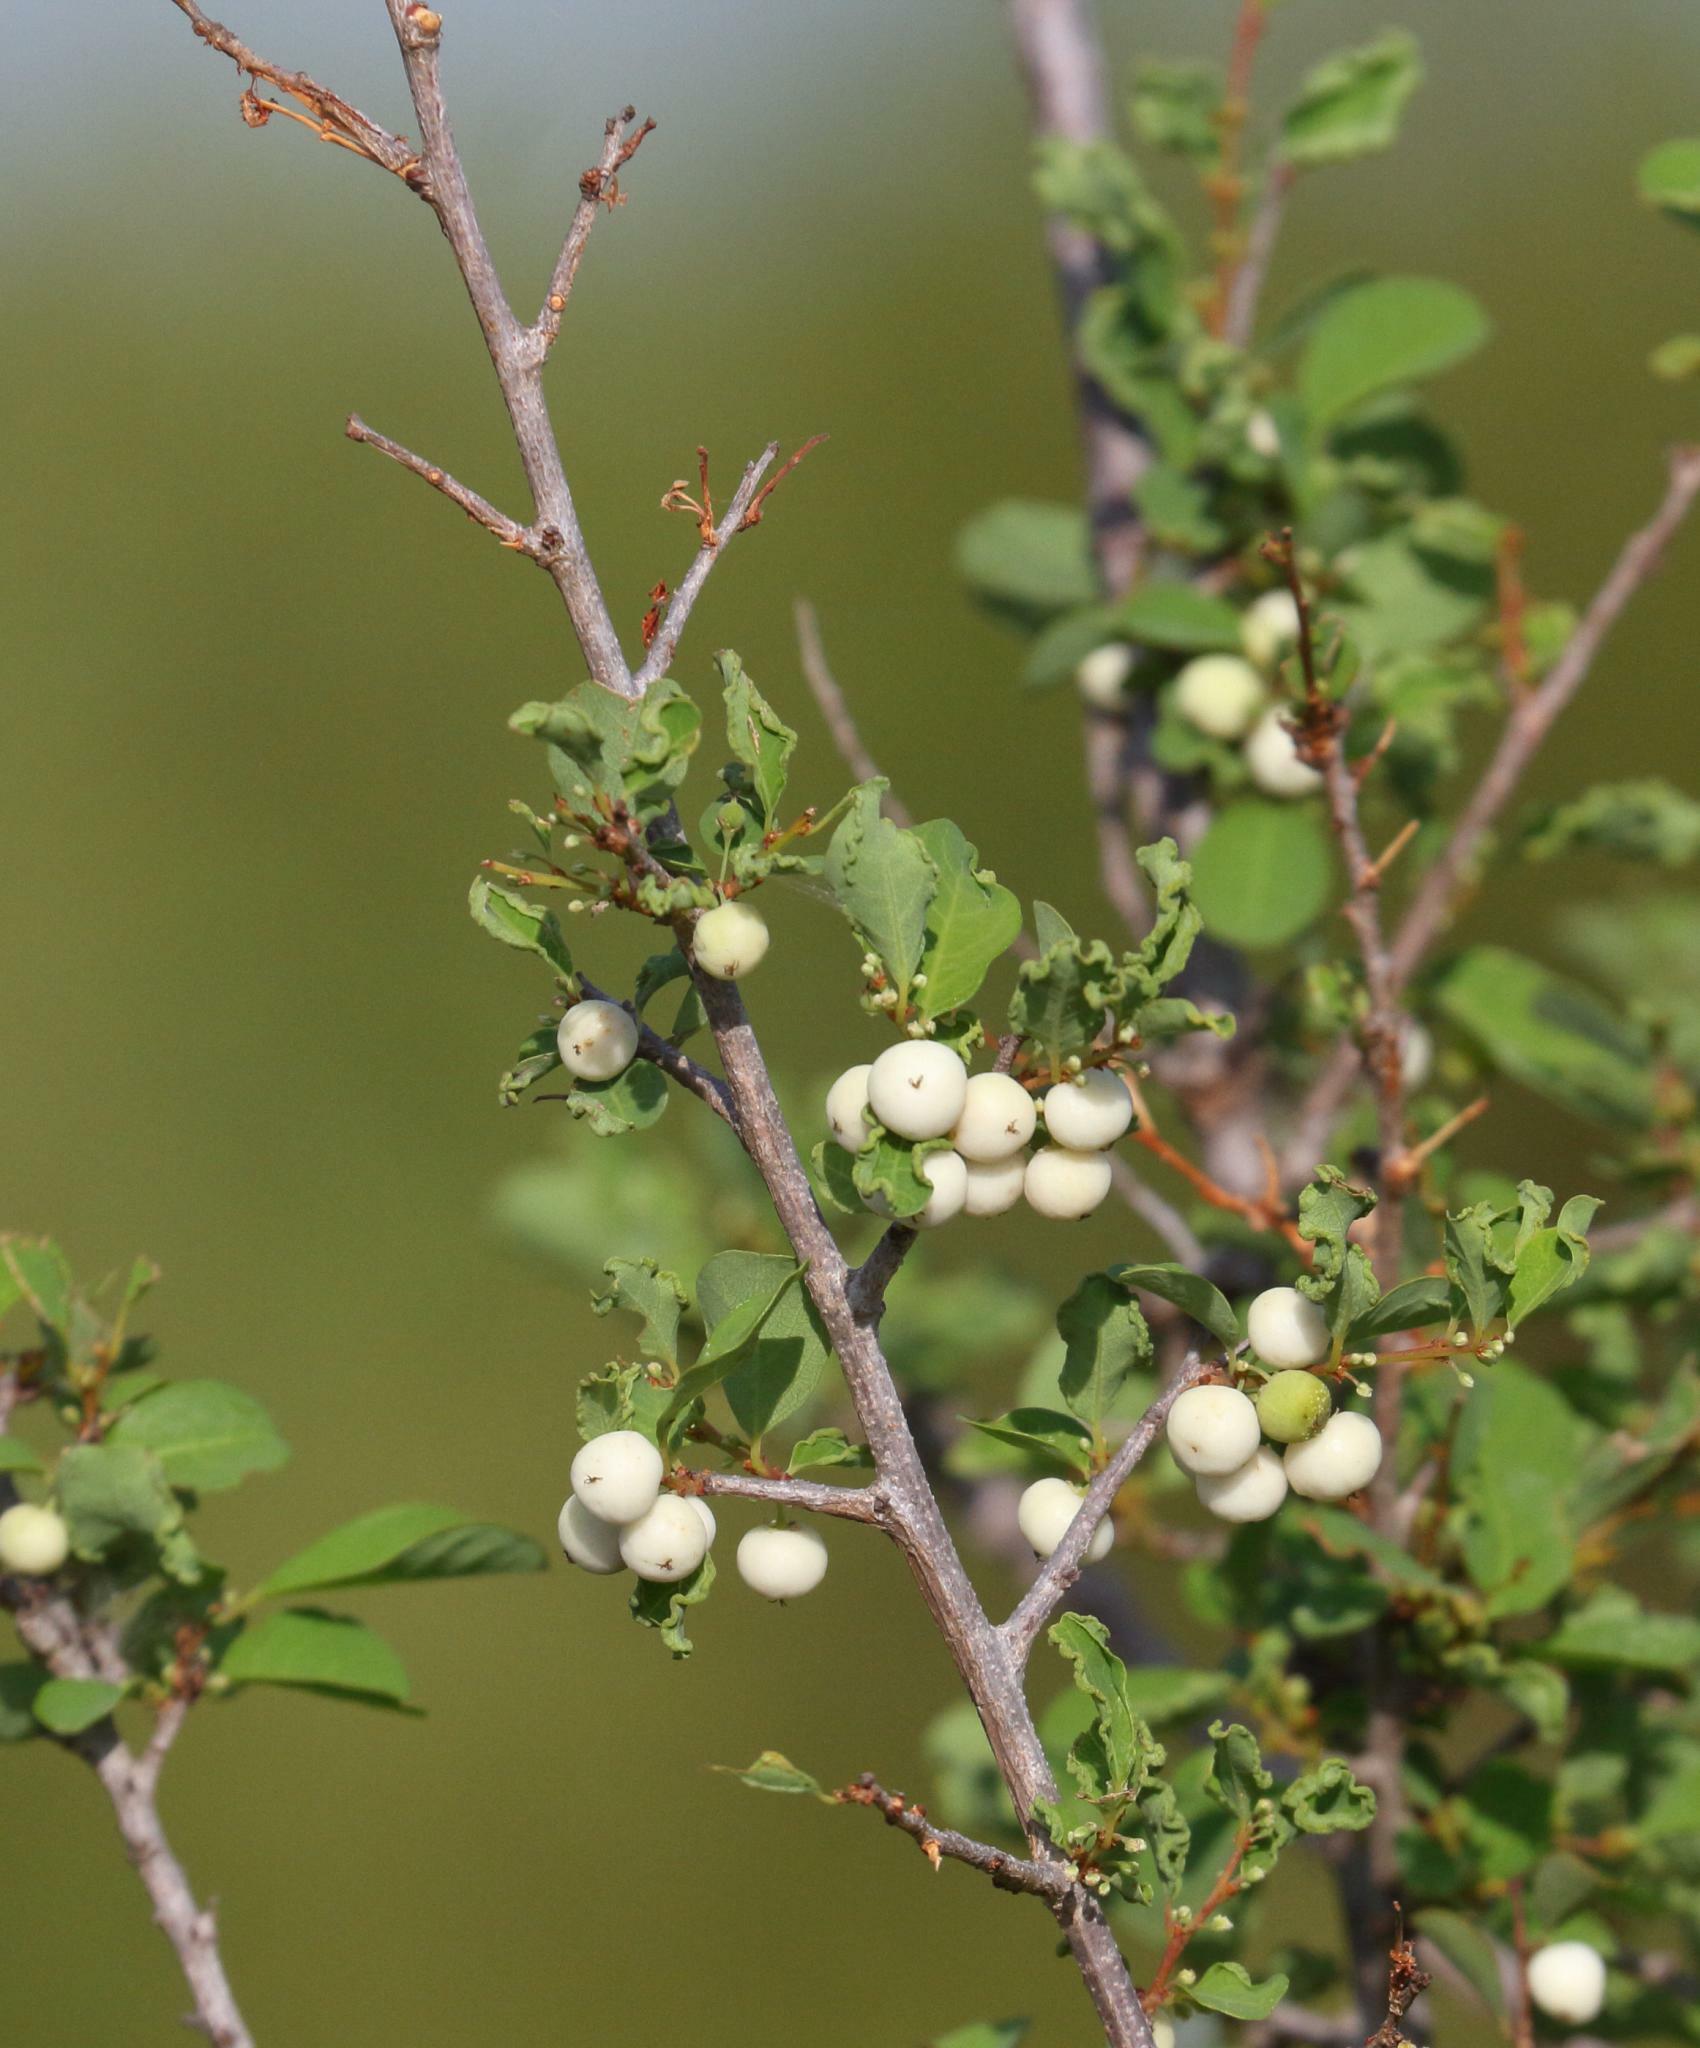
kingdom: Plantae
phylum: Tracheophyta
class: Magnoliopsida
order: Malpighiales
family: Phyllanthaceae
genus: Flueggea
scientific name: Flueggea virosa
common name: Common bushweed
